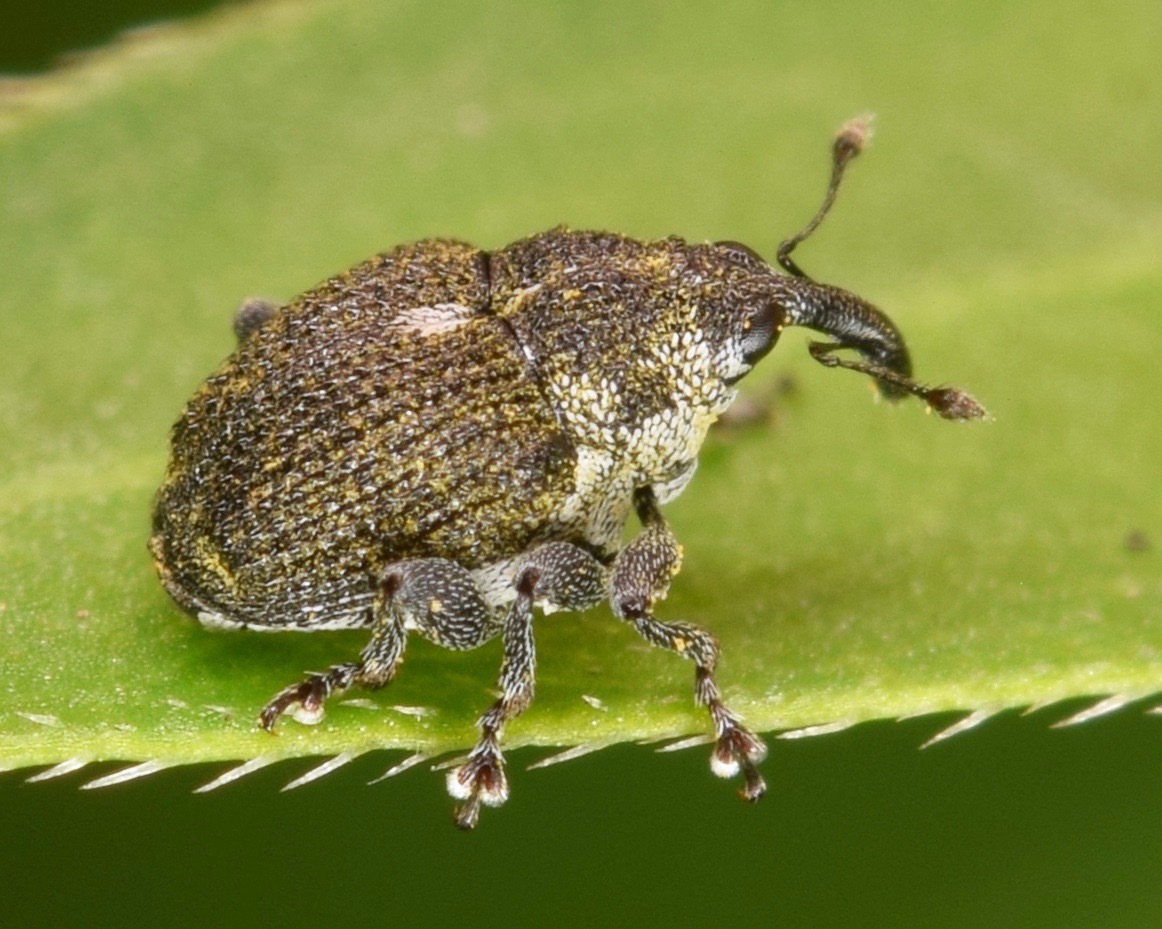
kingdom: Animalia
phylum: Arthropoda
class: Insecta
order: Coleoptera
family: Curculionidae
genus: Homorosoma
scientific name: Homorosoma sulcipenne
